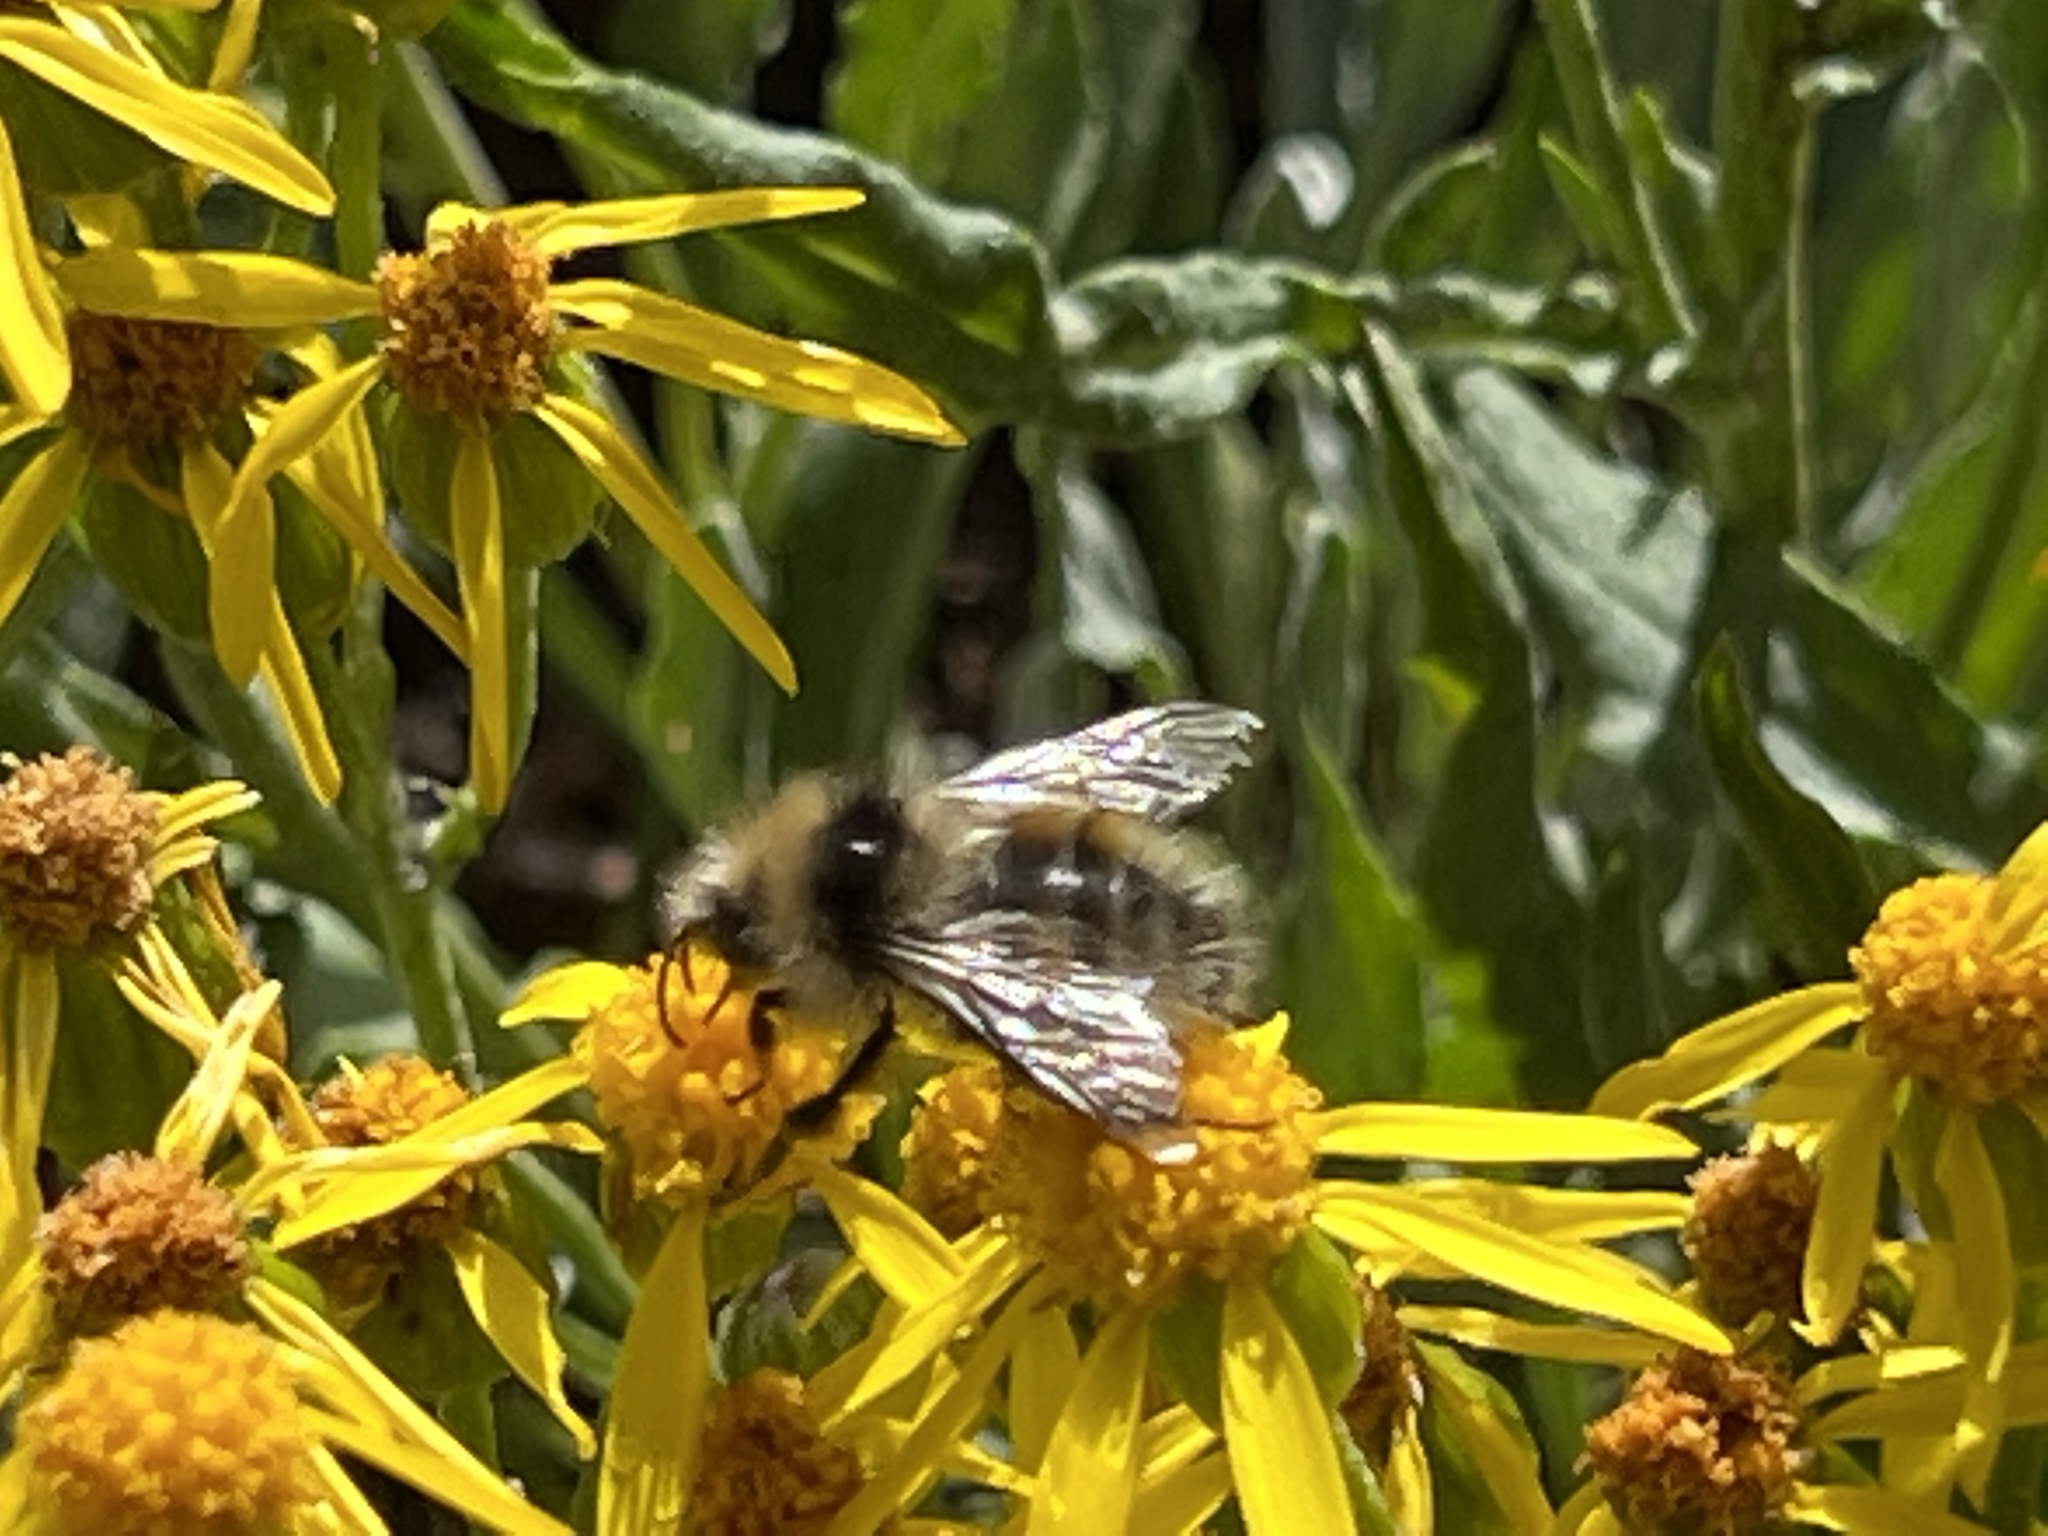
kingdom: Animalia
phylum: Arthropoda
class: Insecta
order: Hymenoptera
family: Apidae
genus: Bombus
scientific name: Bombus sylvicola
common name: Forest bumble bee
